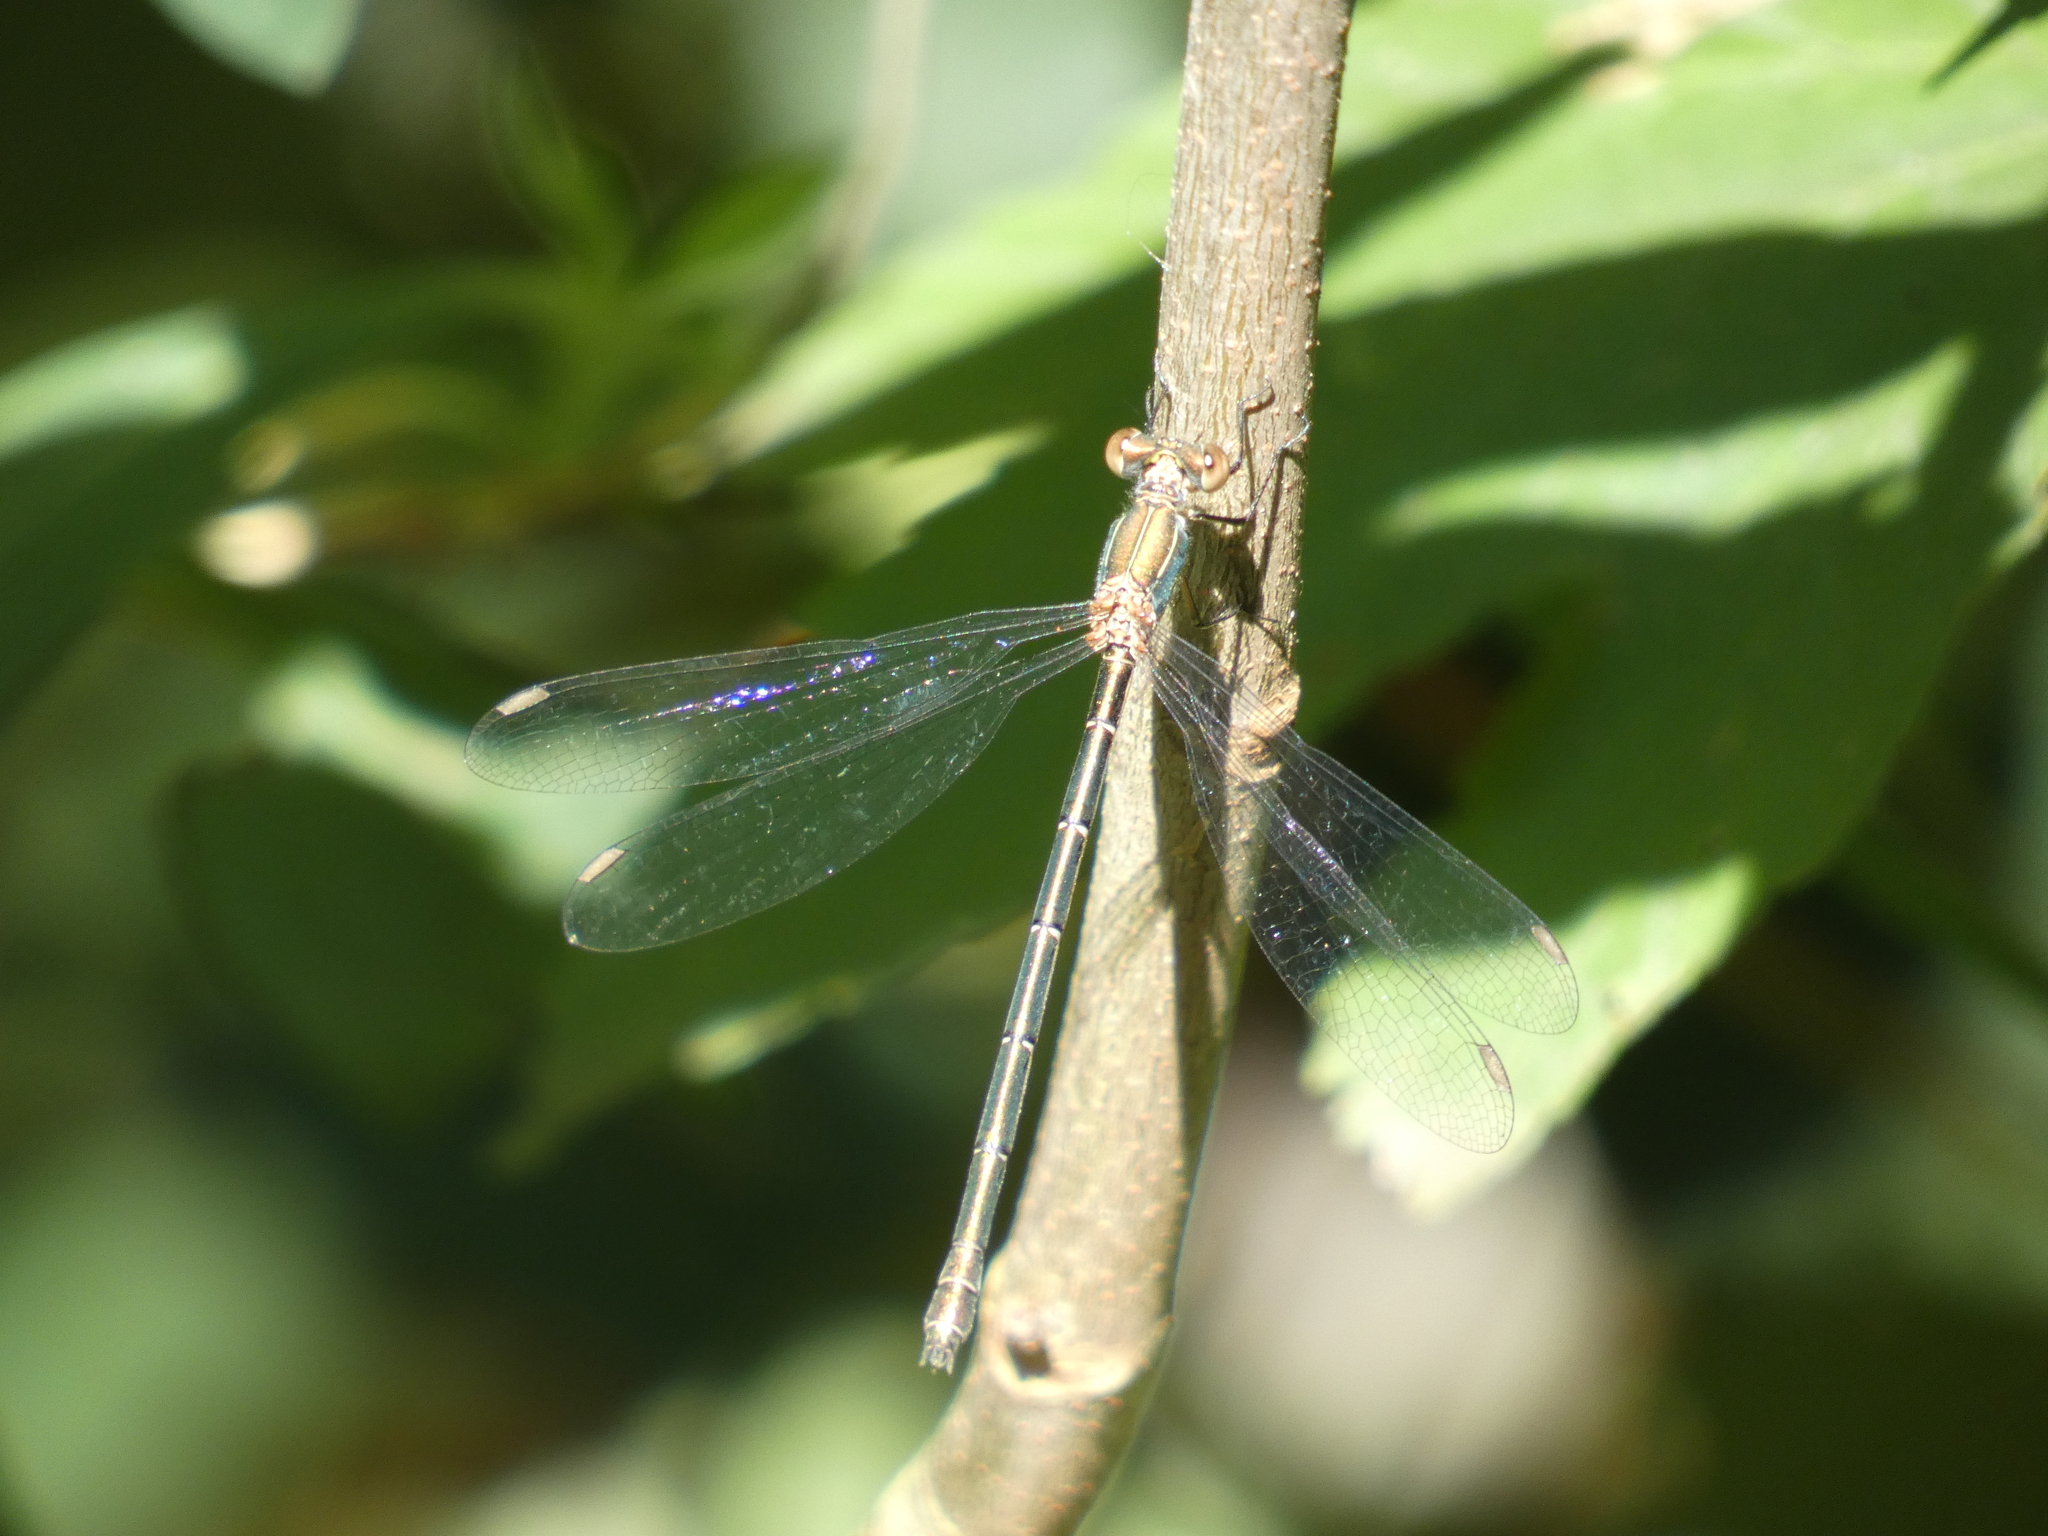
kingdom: Animalia
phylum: Arthropoda
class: Insecta
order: Odonata
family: Lestidae
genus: Chalcolestes
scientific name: Chalcolestes viridis
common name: Green emerald damselfly
